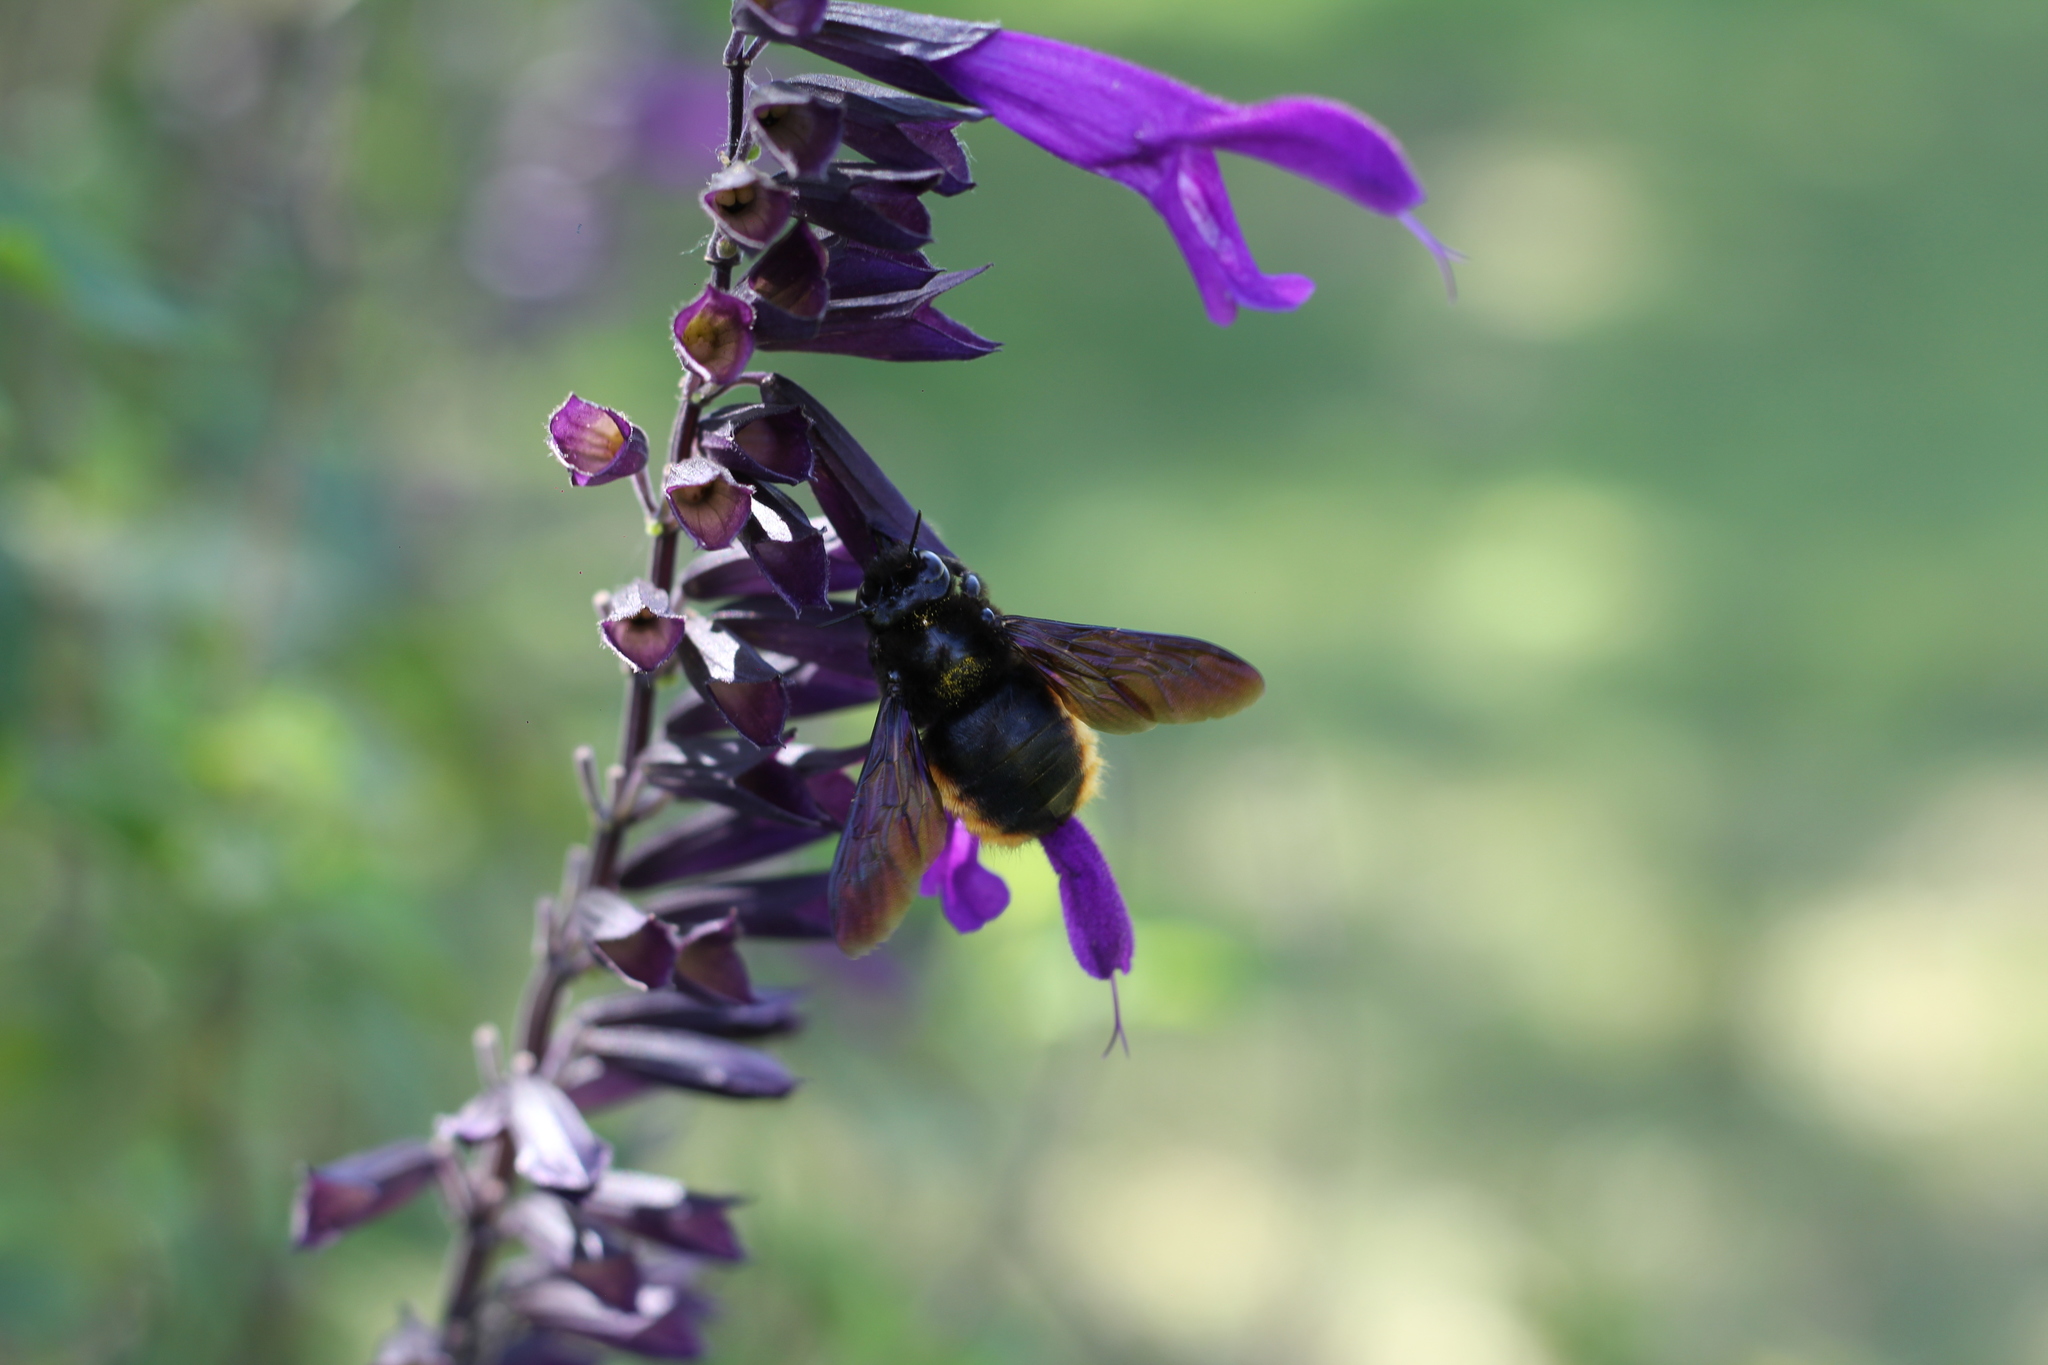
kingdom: Animalia
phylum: Arthropoda
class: Insecta
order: Hymenoptera
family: Apidae
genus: Xylocopa
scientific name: Xylocopa augusti
